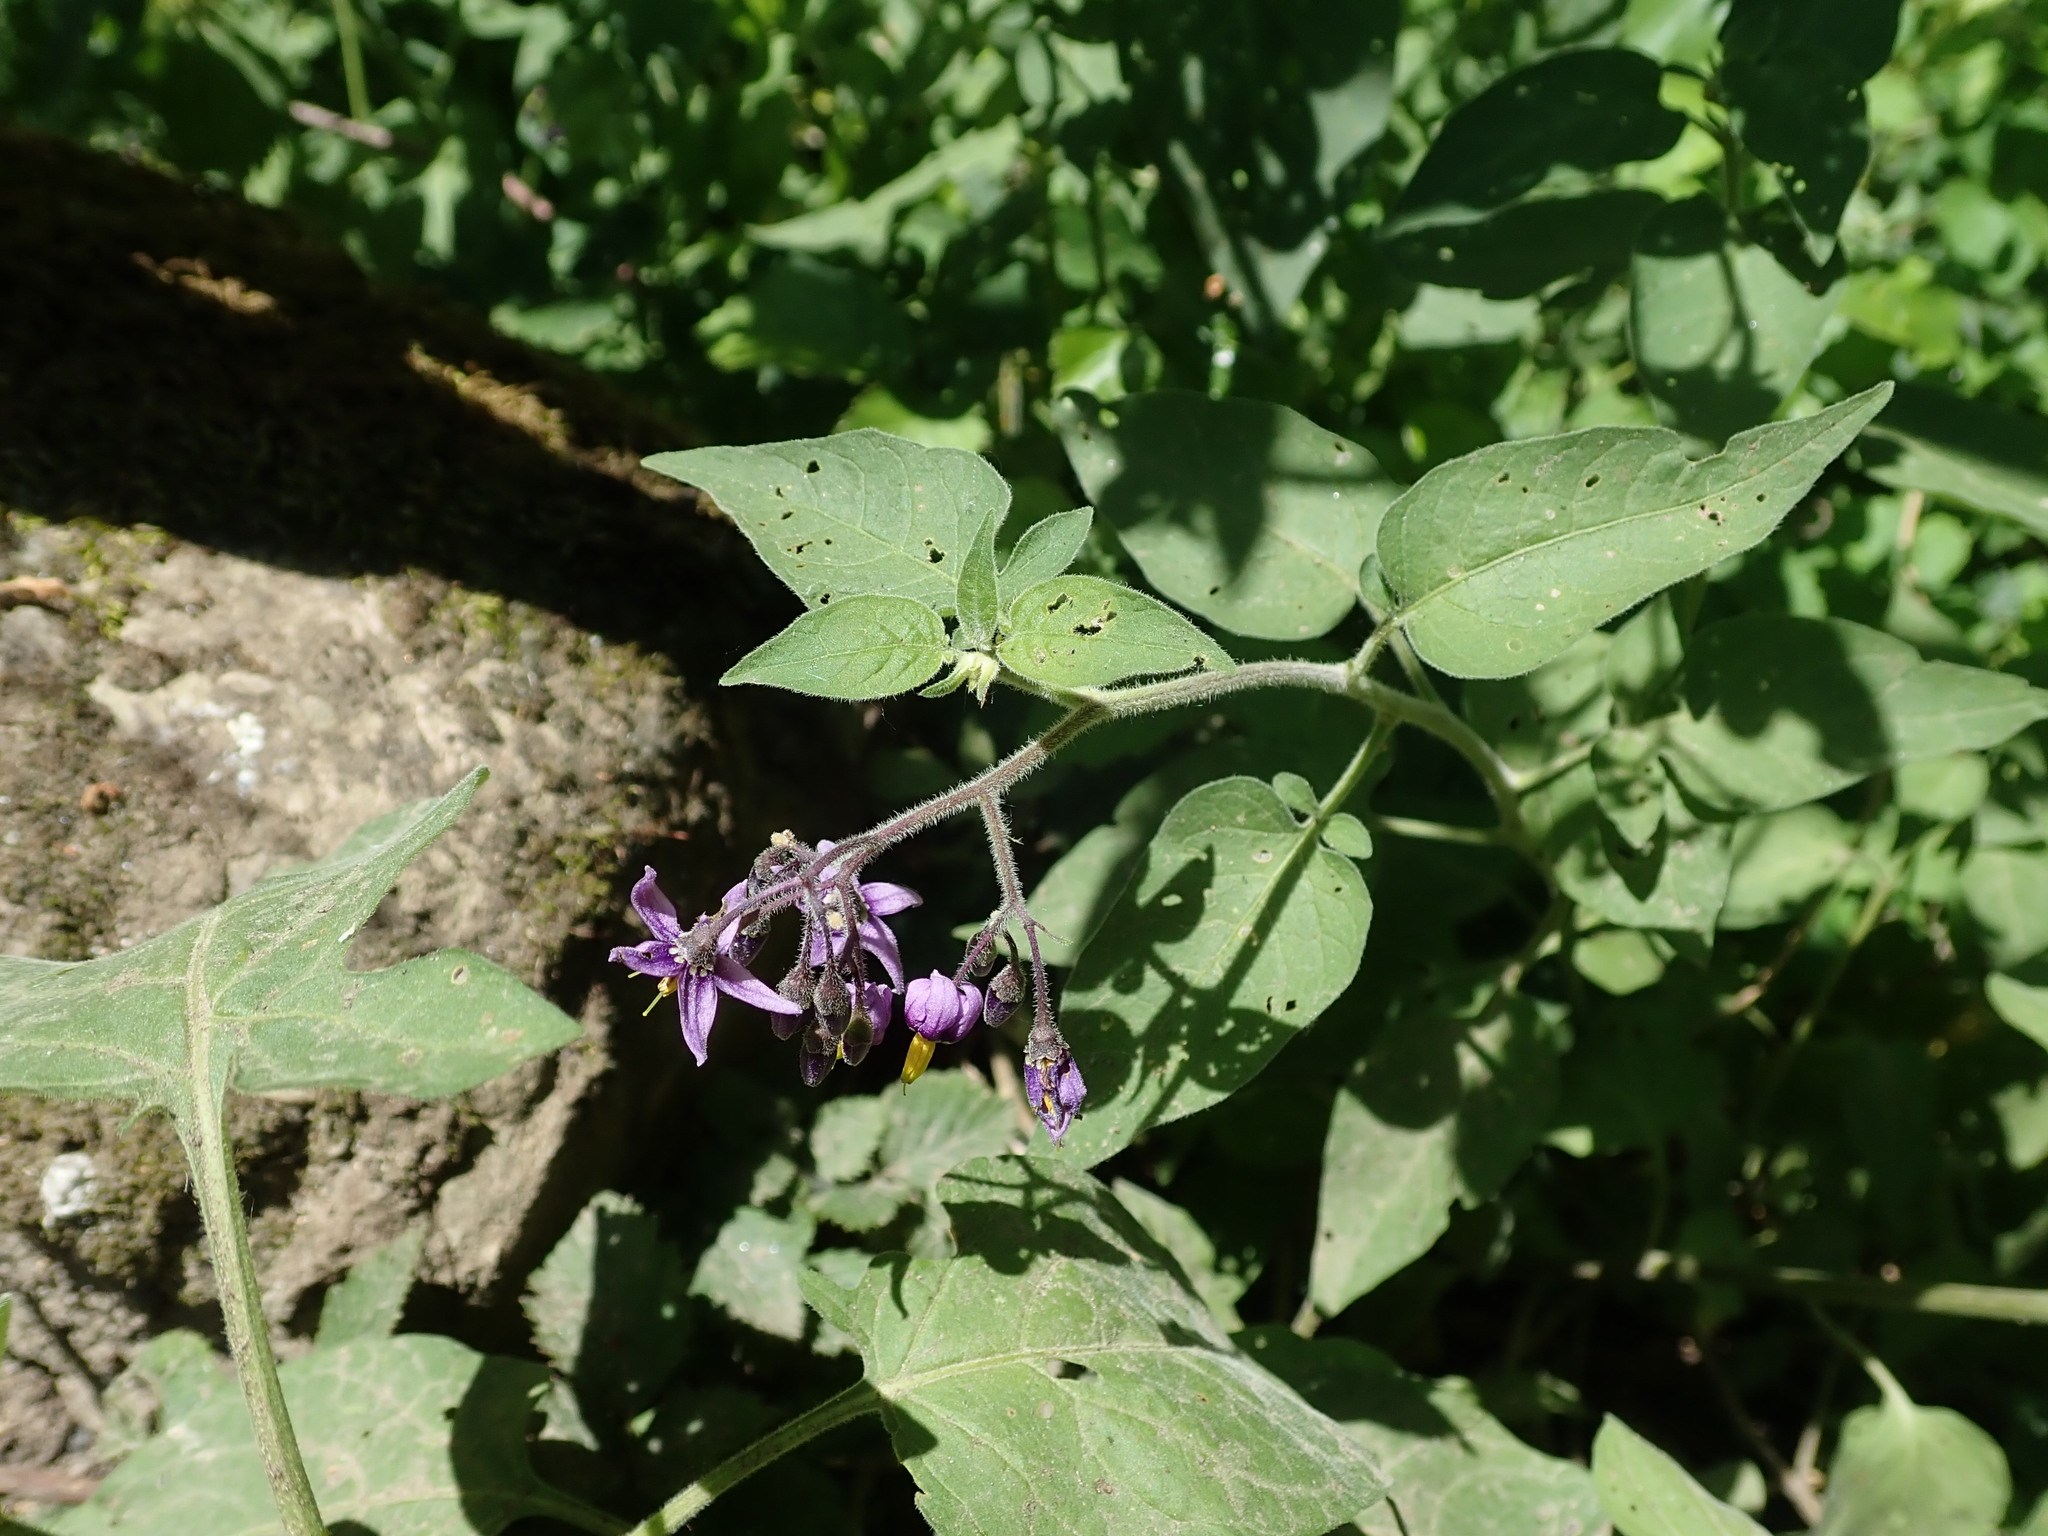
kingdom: Plantae
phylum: Tracheophyta
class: Magnoliopsida
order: Solanales
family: Solanaceae
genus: Solanum
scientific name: Solanum dulcamara
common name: Climbing nightshade
